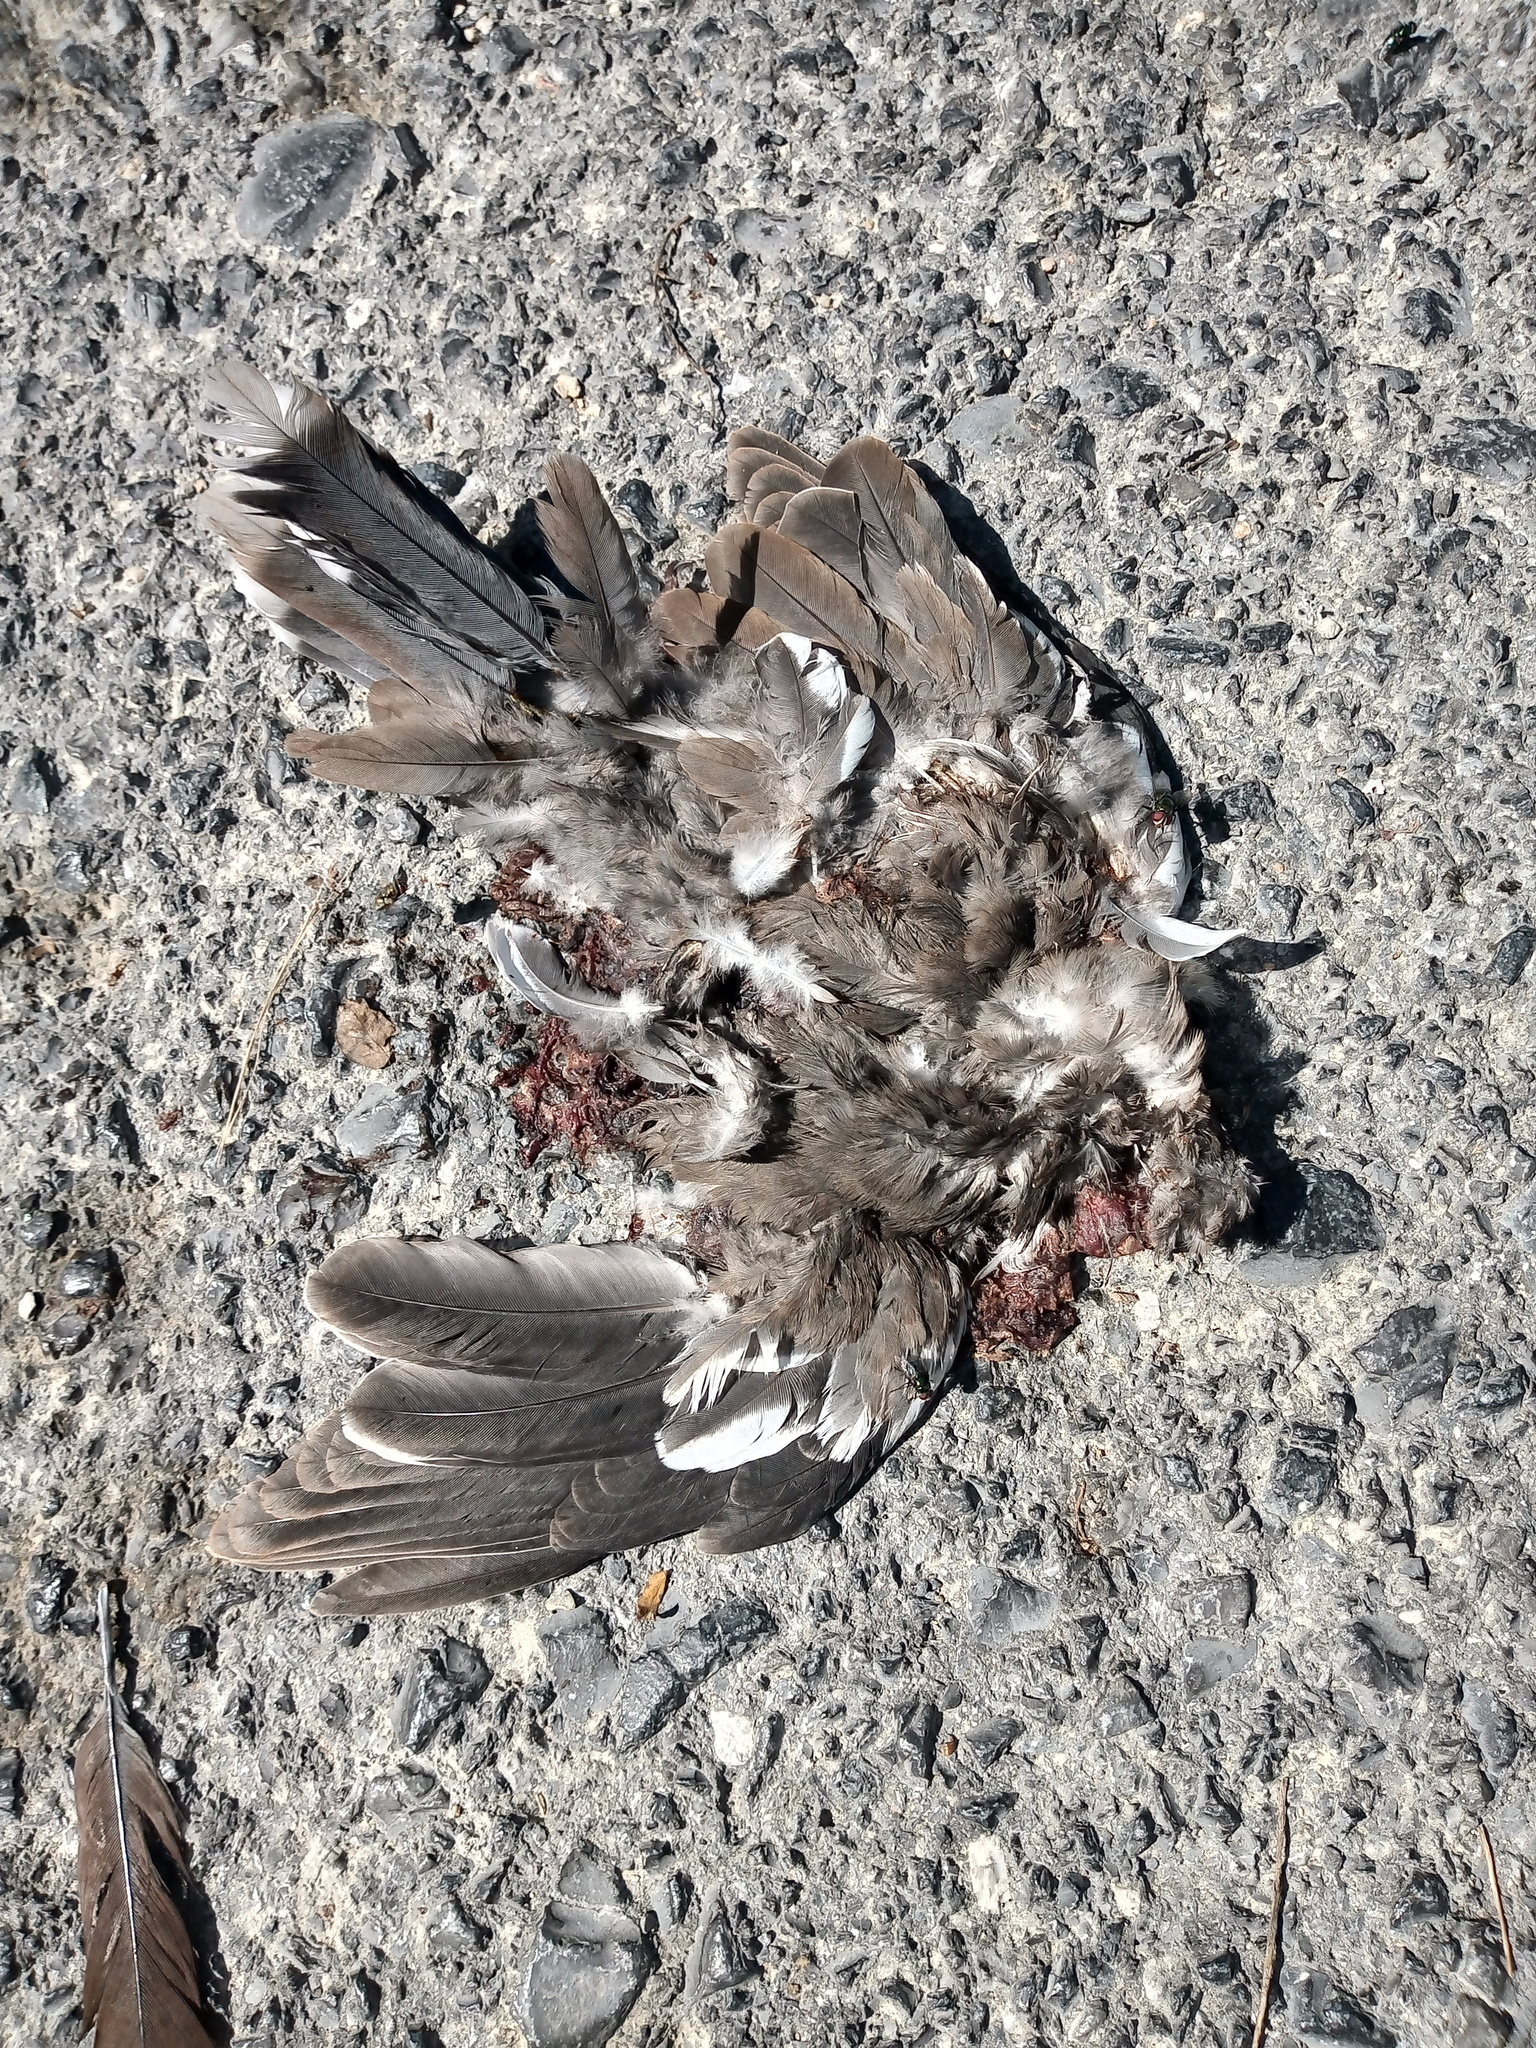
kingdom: Animalia
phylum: Chordata
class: Aves
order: Columbiformes
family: Columbidae
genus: Zenaida
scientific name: Zenaida asiatica
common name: White-winged dove
